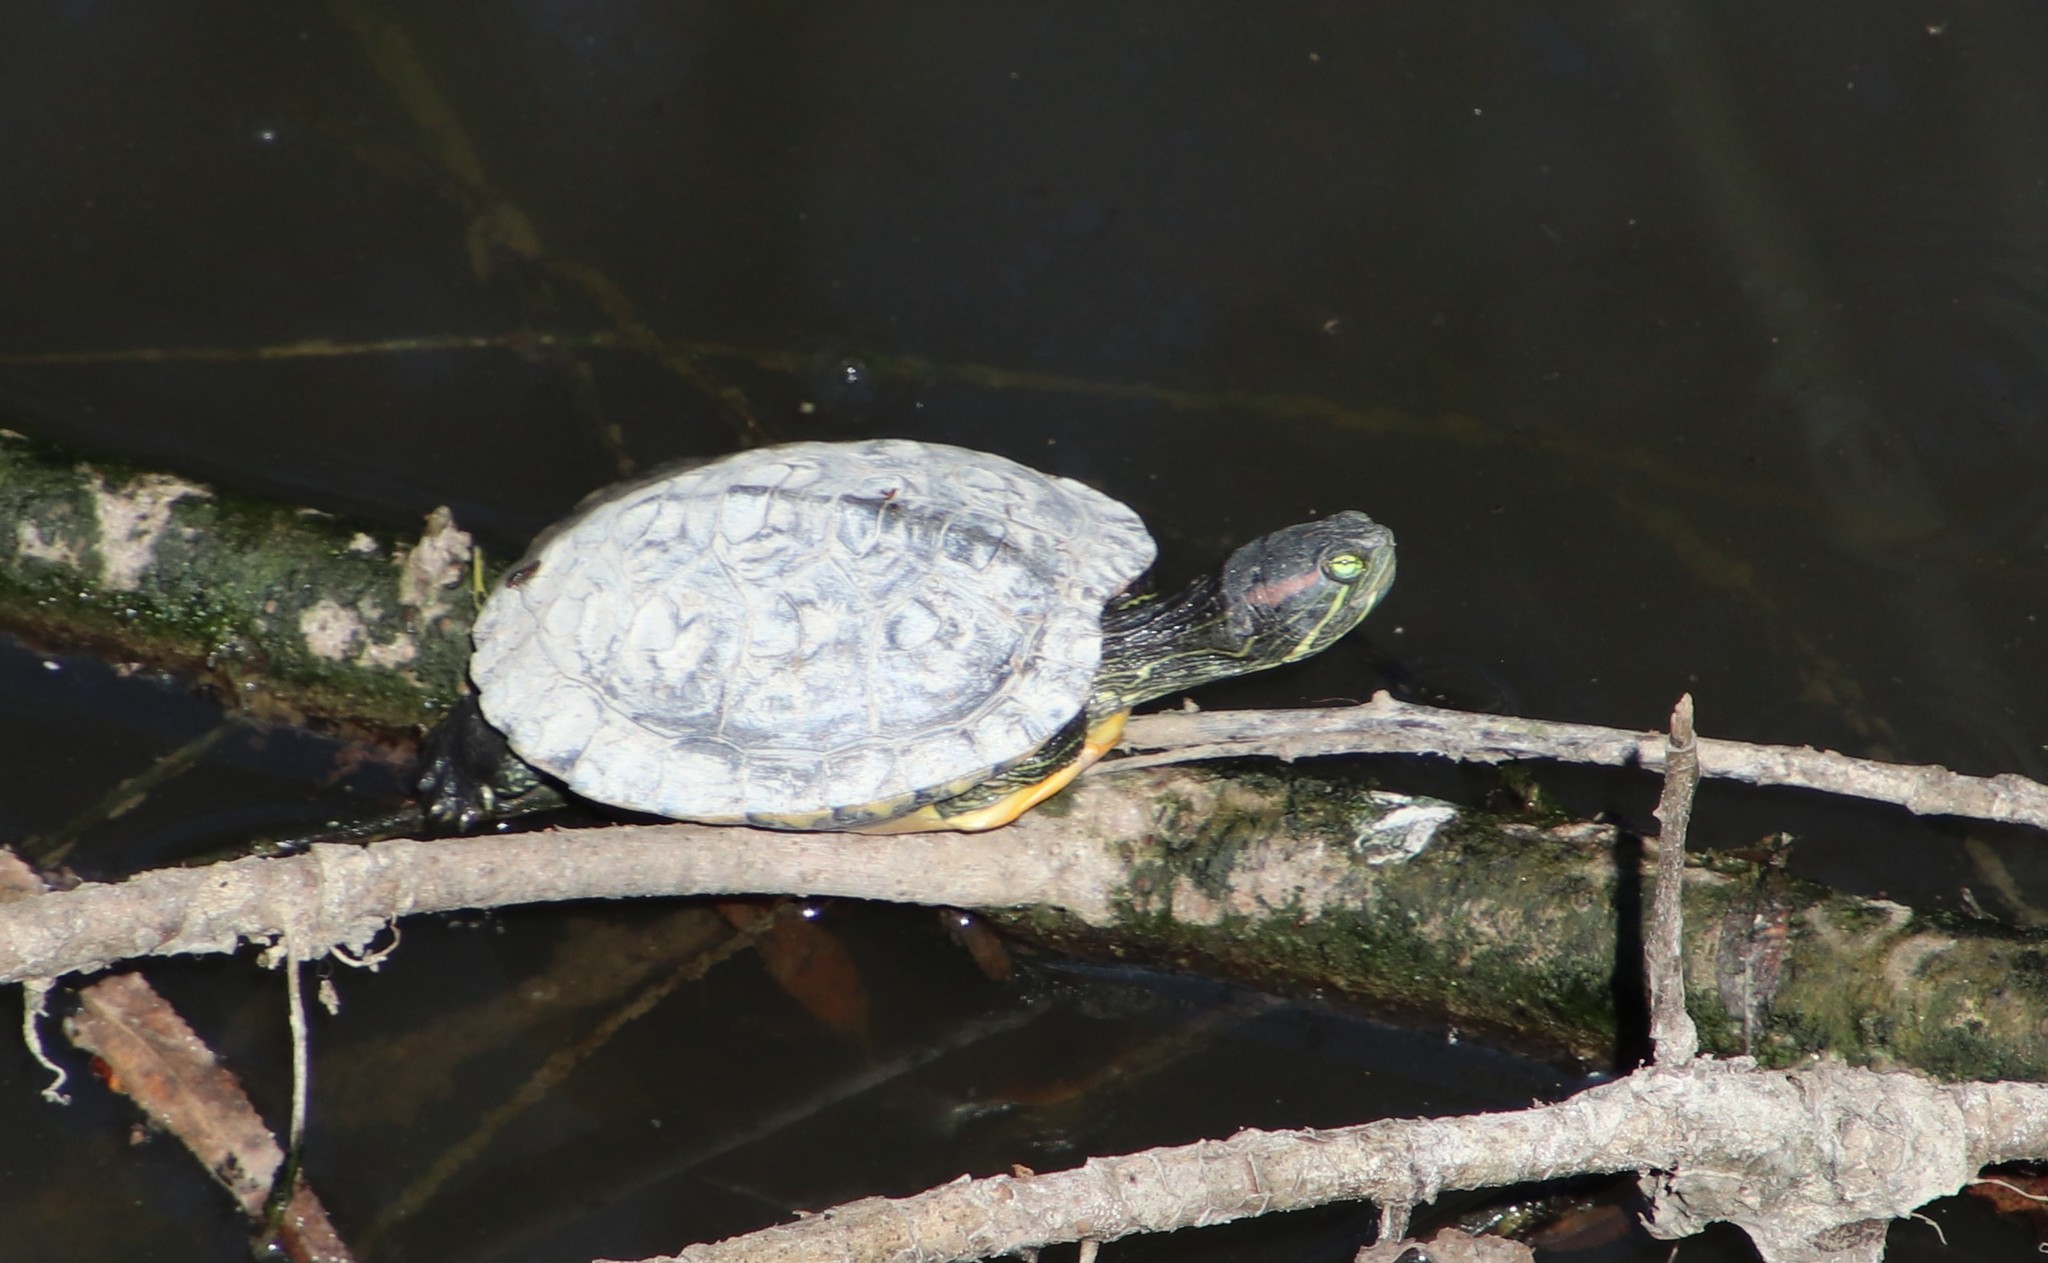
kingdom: Animalia
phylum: Chordata
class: Testudines
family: Emydidae
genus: Trachemys
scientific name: Trachemys scripta
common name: Slider
